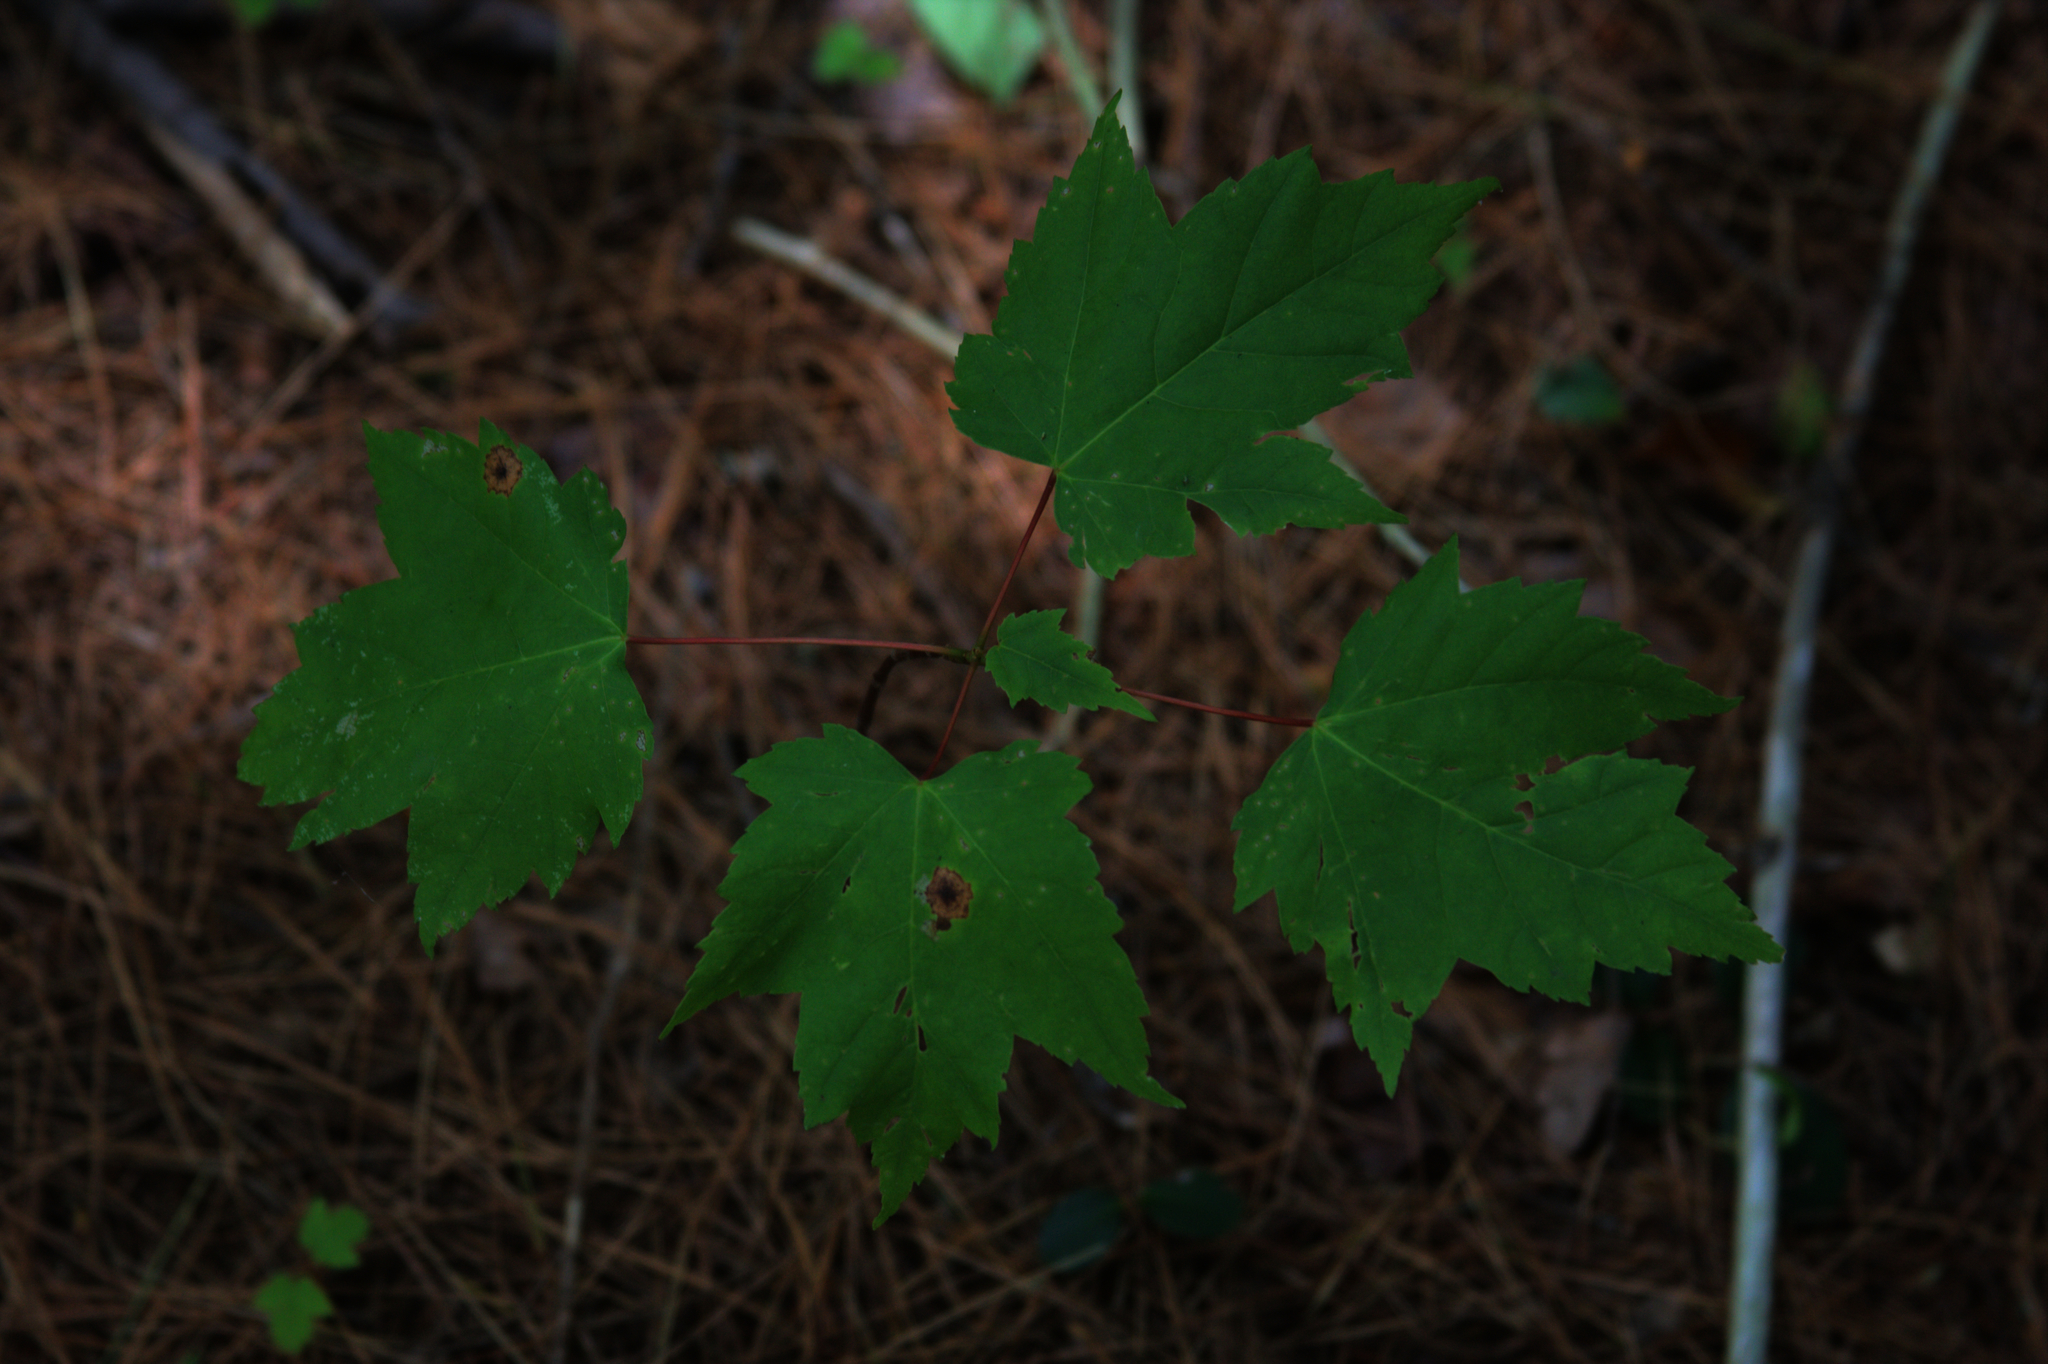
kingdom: Plantae
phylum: Tracheophyta
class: Magnoliopsida
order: Sapindales
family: Sapindaceae
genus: Acer
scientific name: Acer rubrum
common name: Red maple
